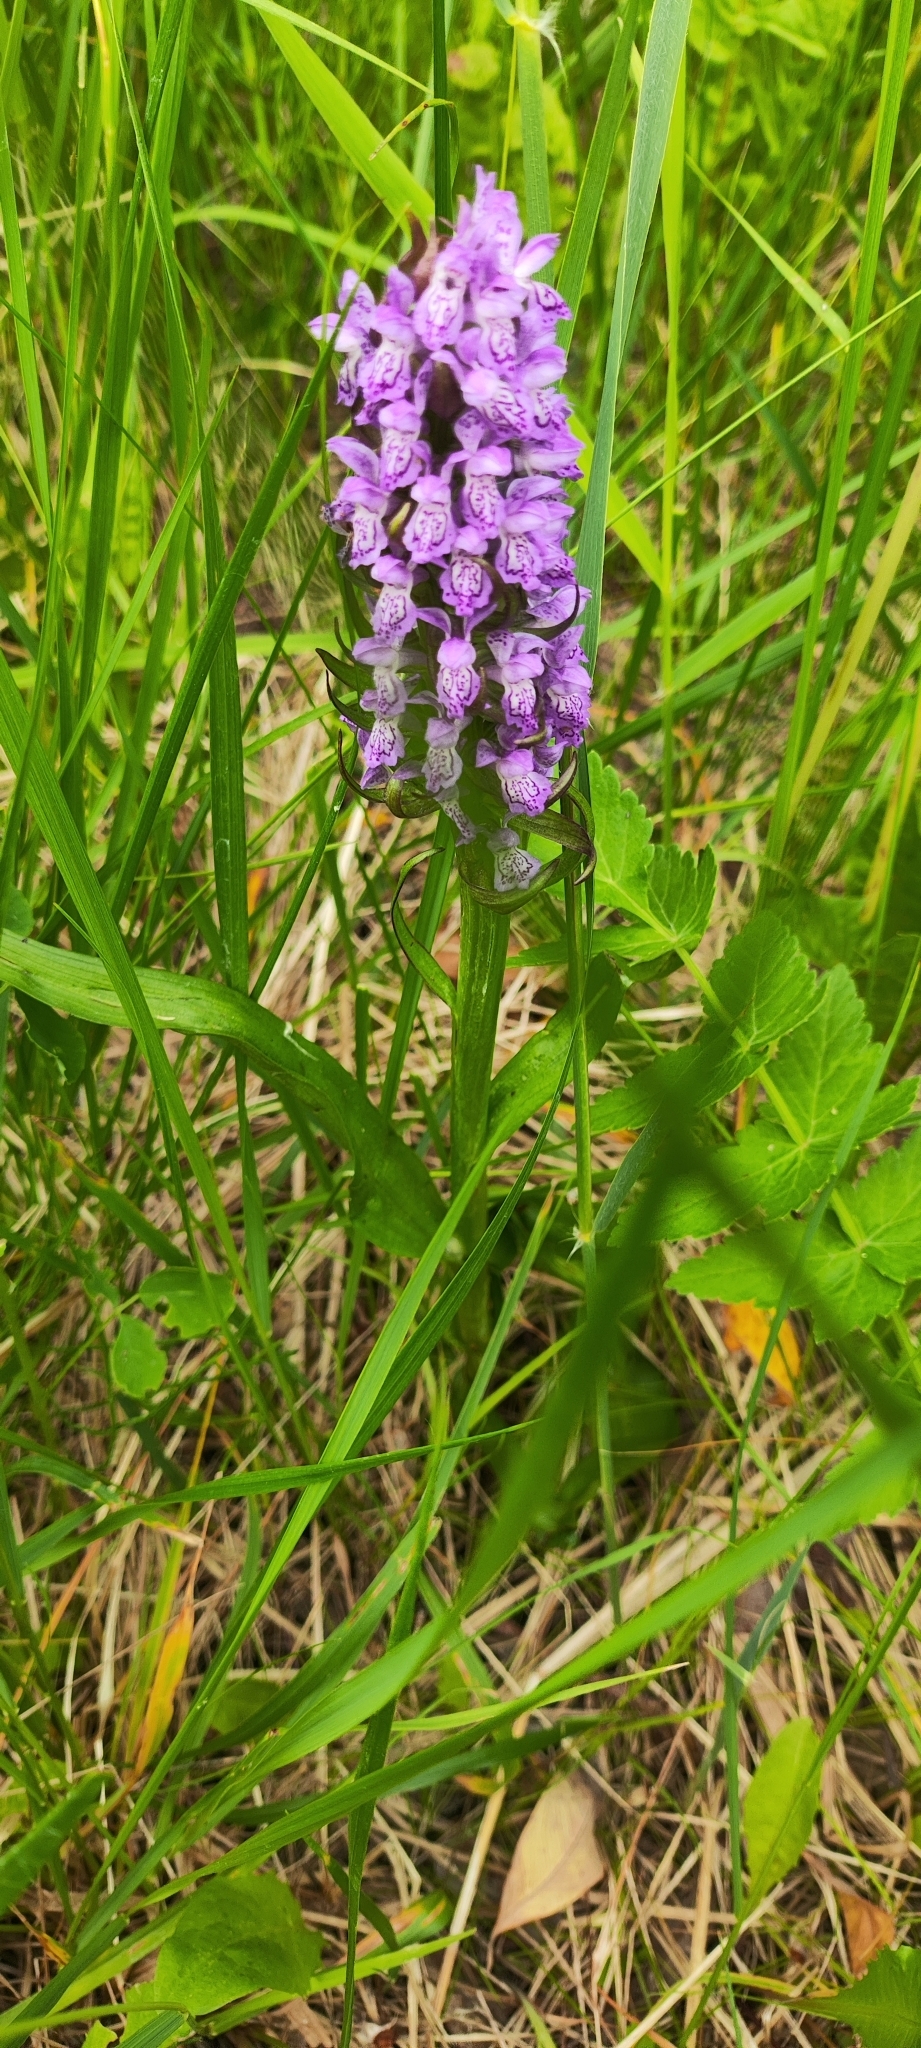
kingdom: Plantae
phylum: Tracheophyta
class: Liliopsida
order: Asparagales
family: Orchidaceae
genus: Dactylorhiza
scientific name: Dactylorhiza incarnata
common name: Early marsh-orchid
